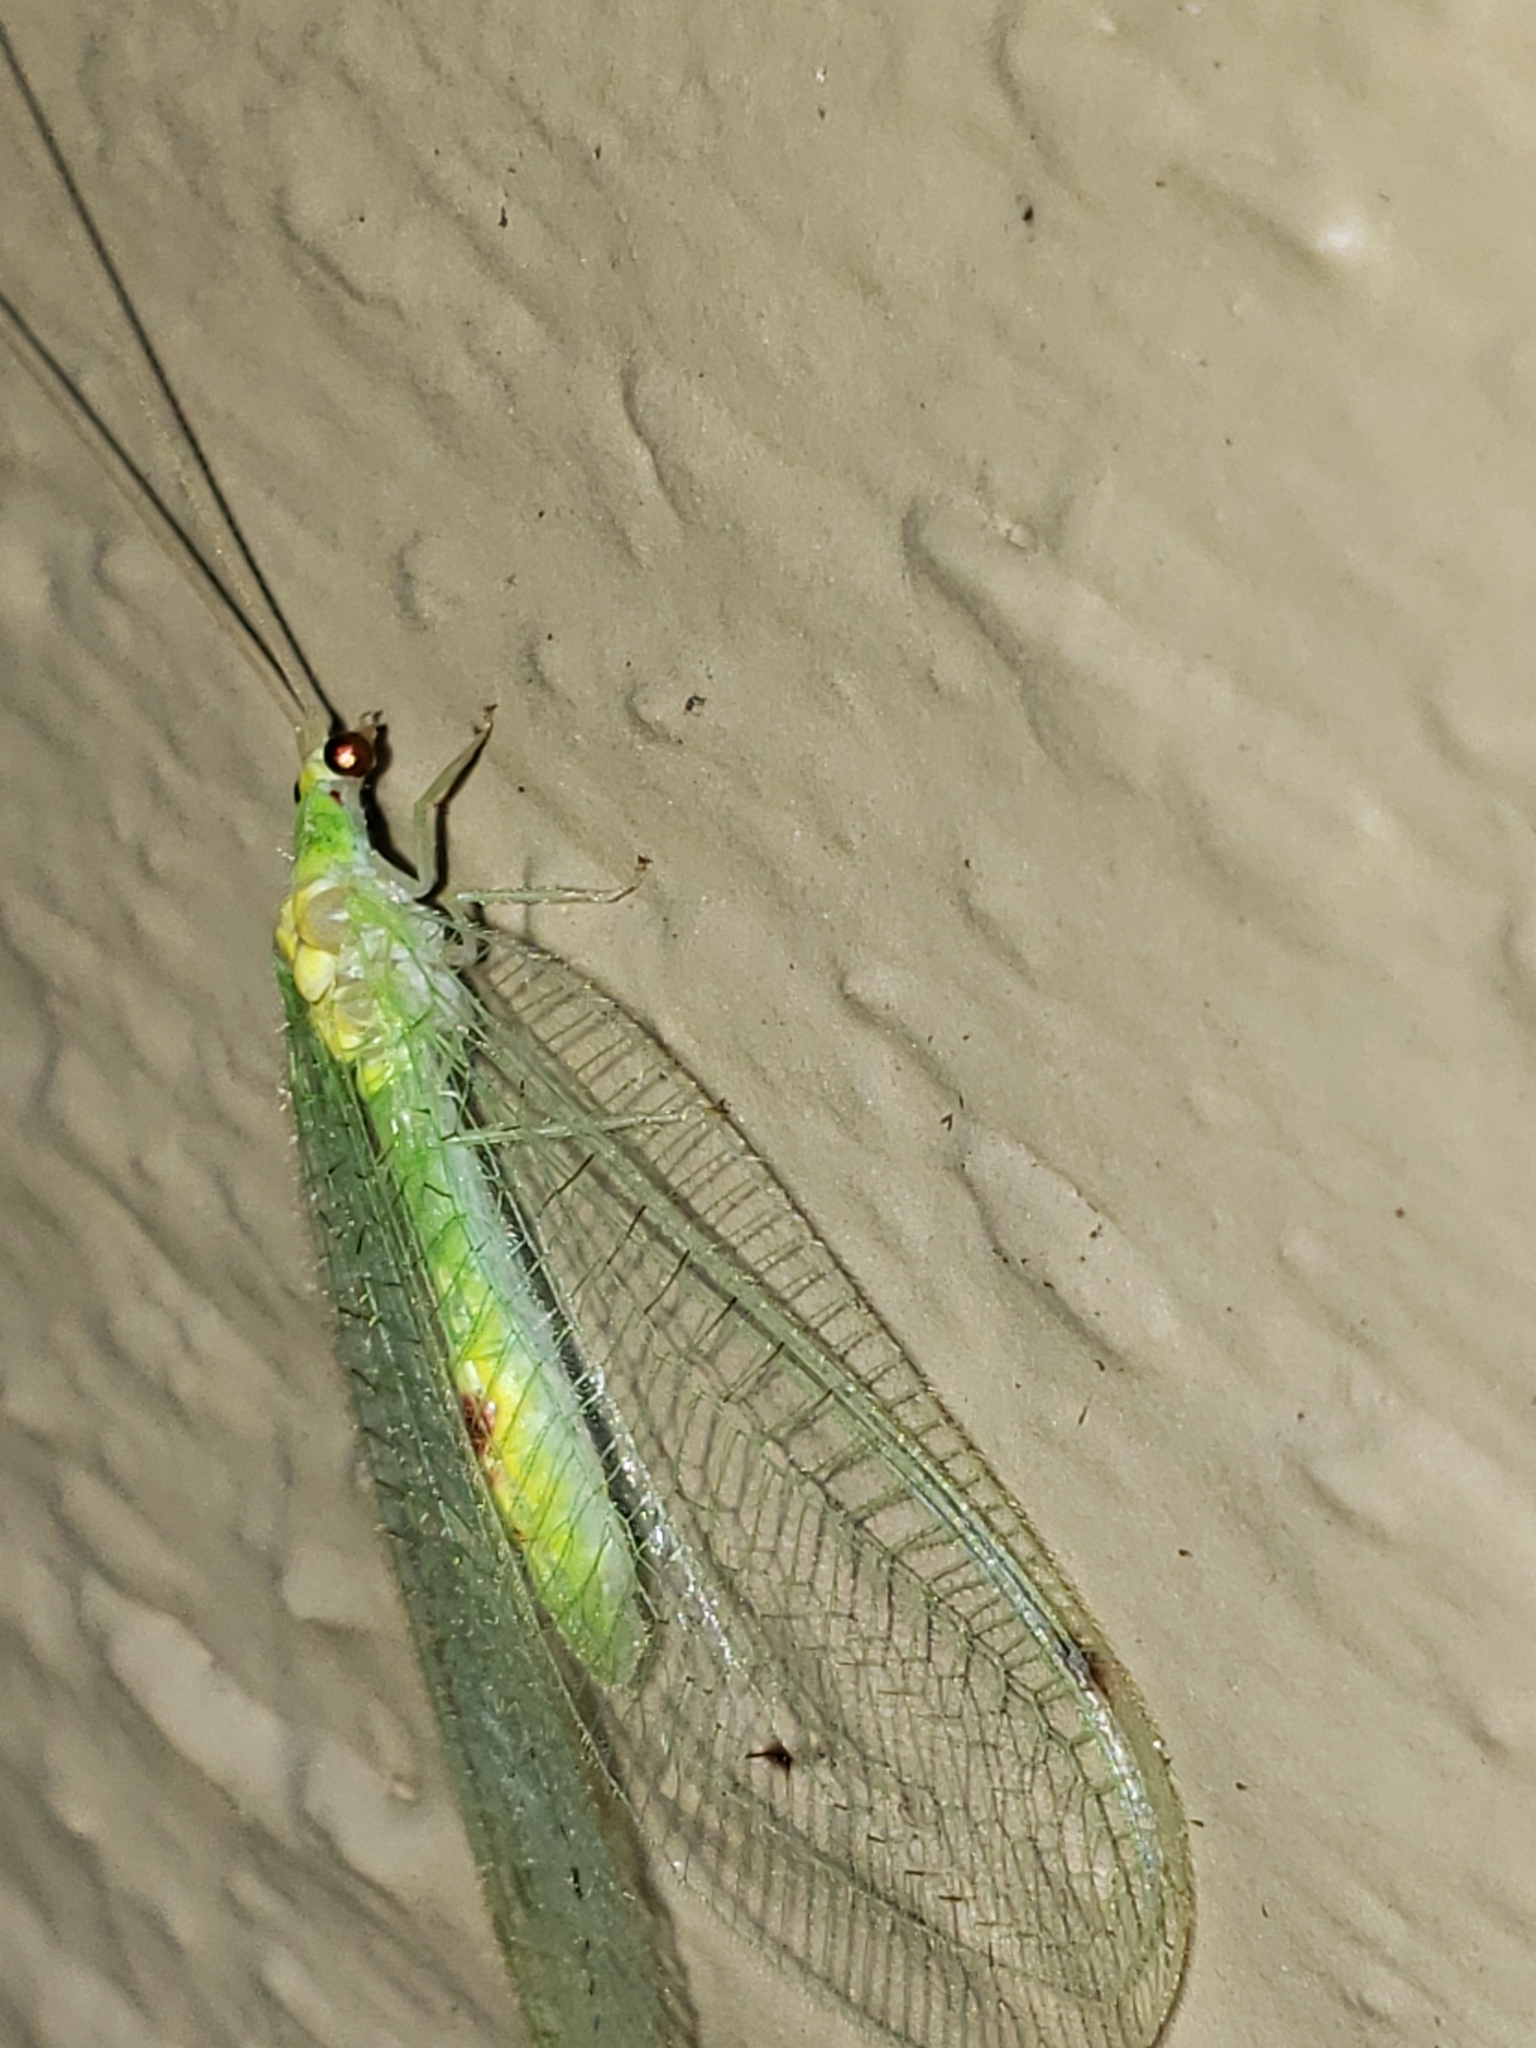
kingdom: Animalia
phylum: Arthropoda
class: Insecta
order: Neuroptera
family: Chrysopidae
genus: Leucochrysa
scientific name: Leucochrysa insularis
